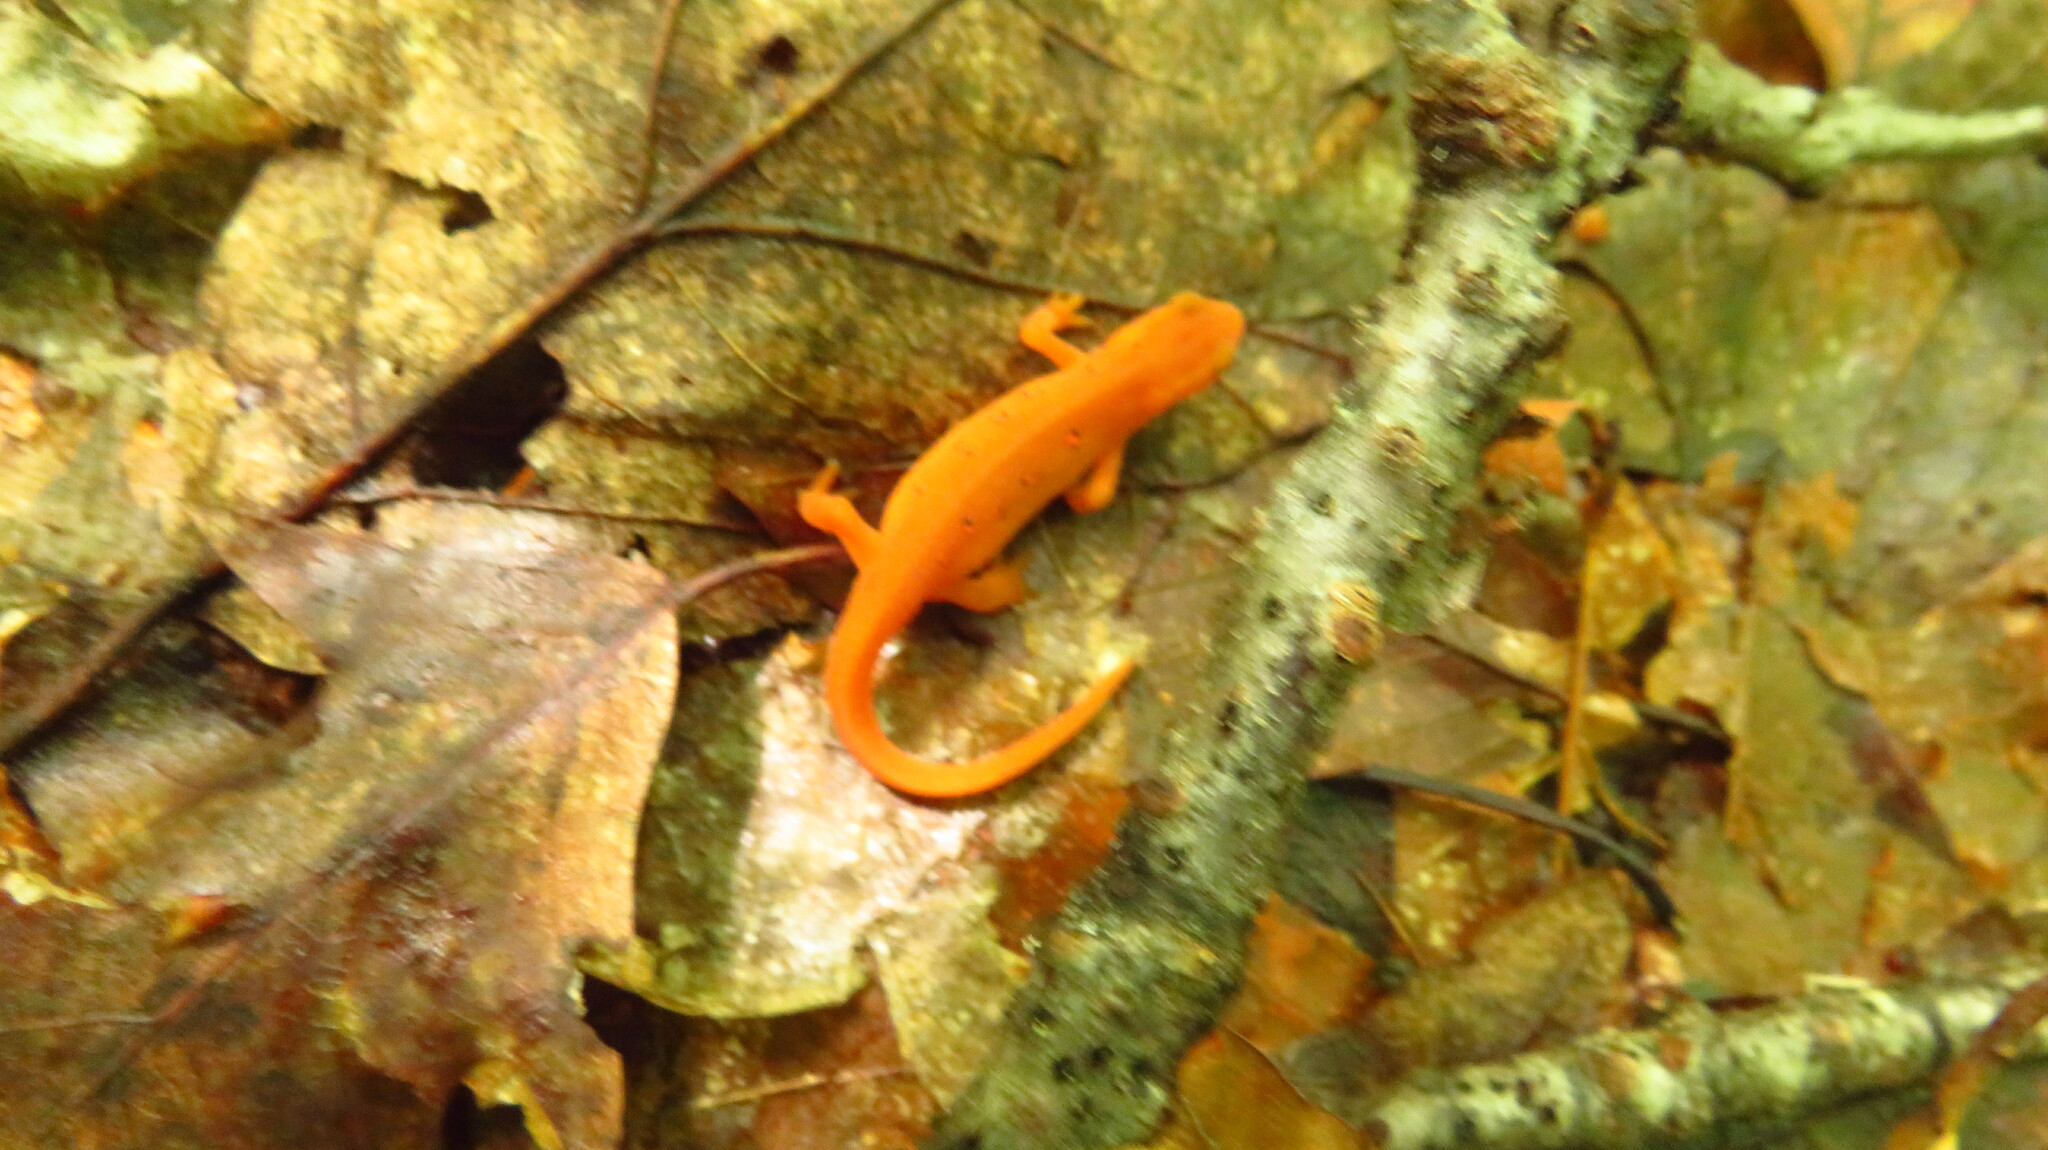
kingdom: Animalia
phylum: Chordata
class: Amphibia
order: Caudata
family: Salamandridae
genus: Notophthalmus
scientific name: Notophthalmus viridescens
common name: Eastern newt
